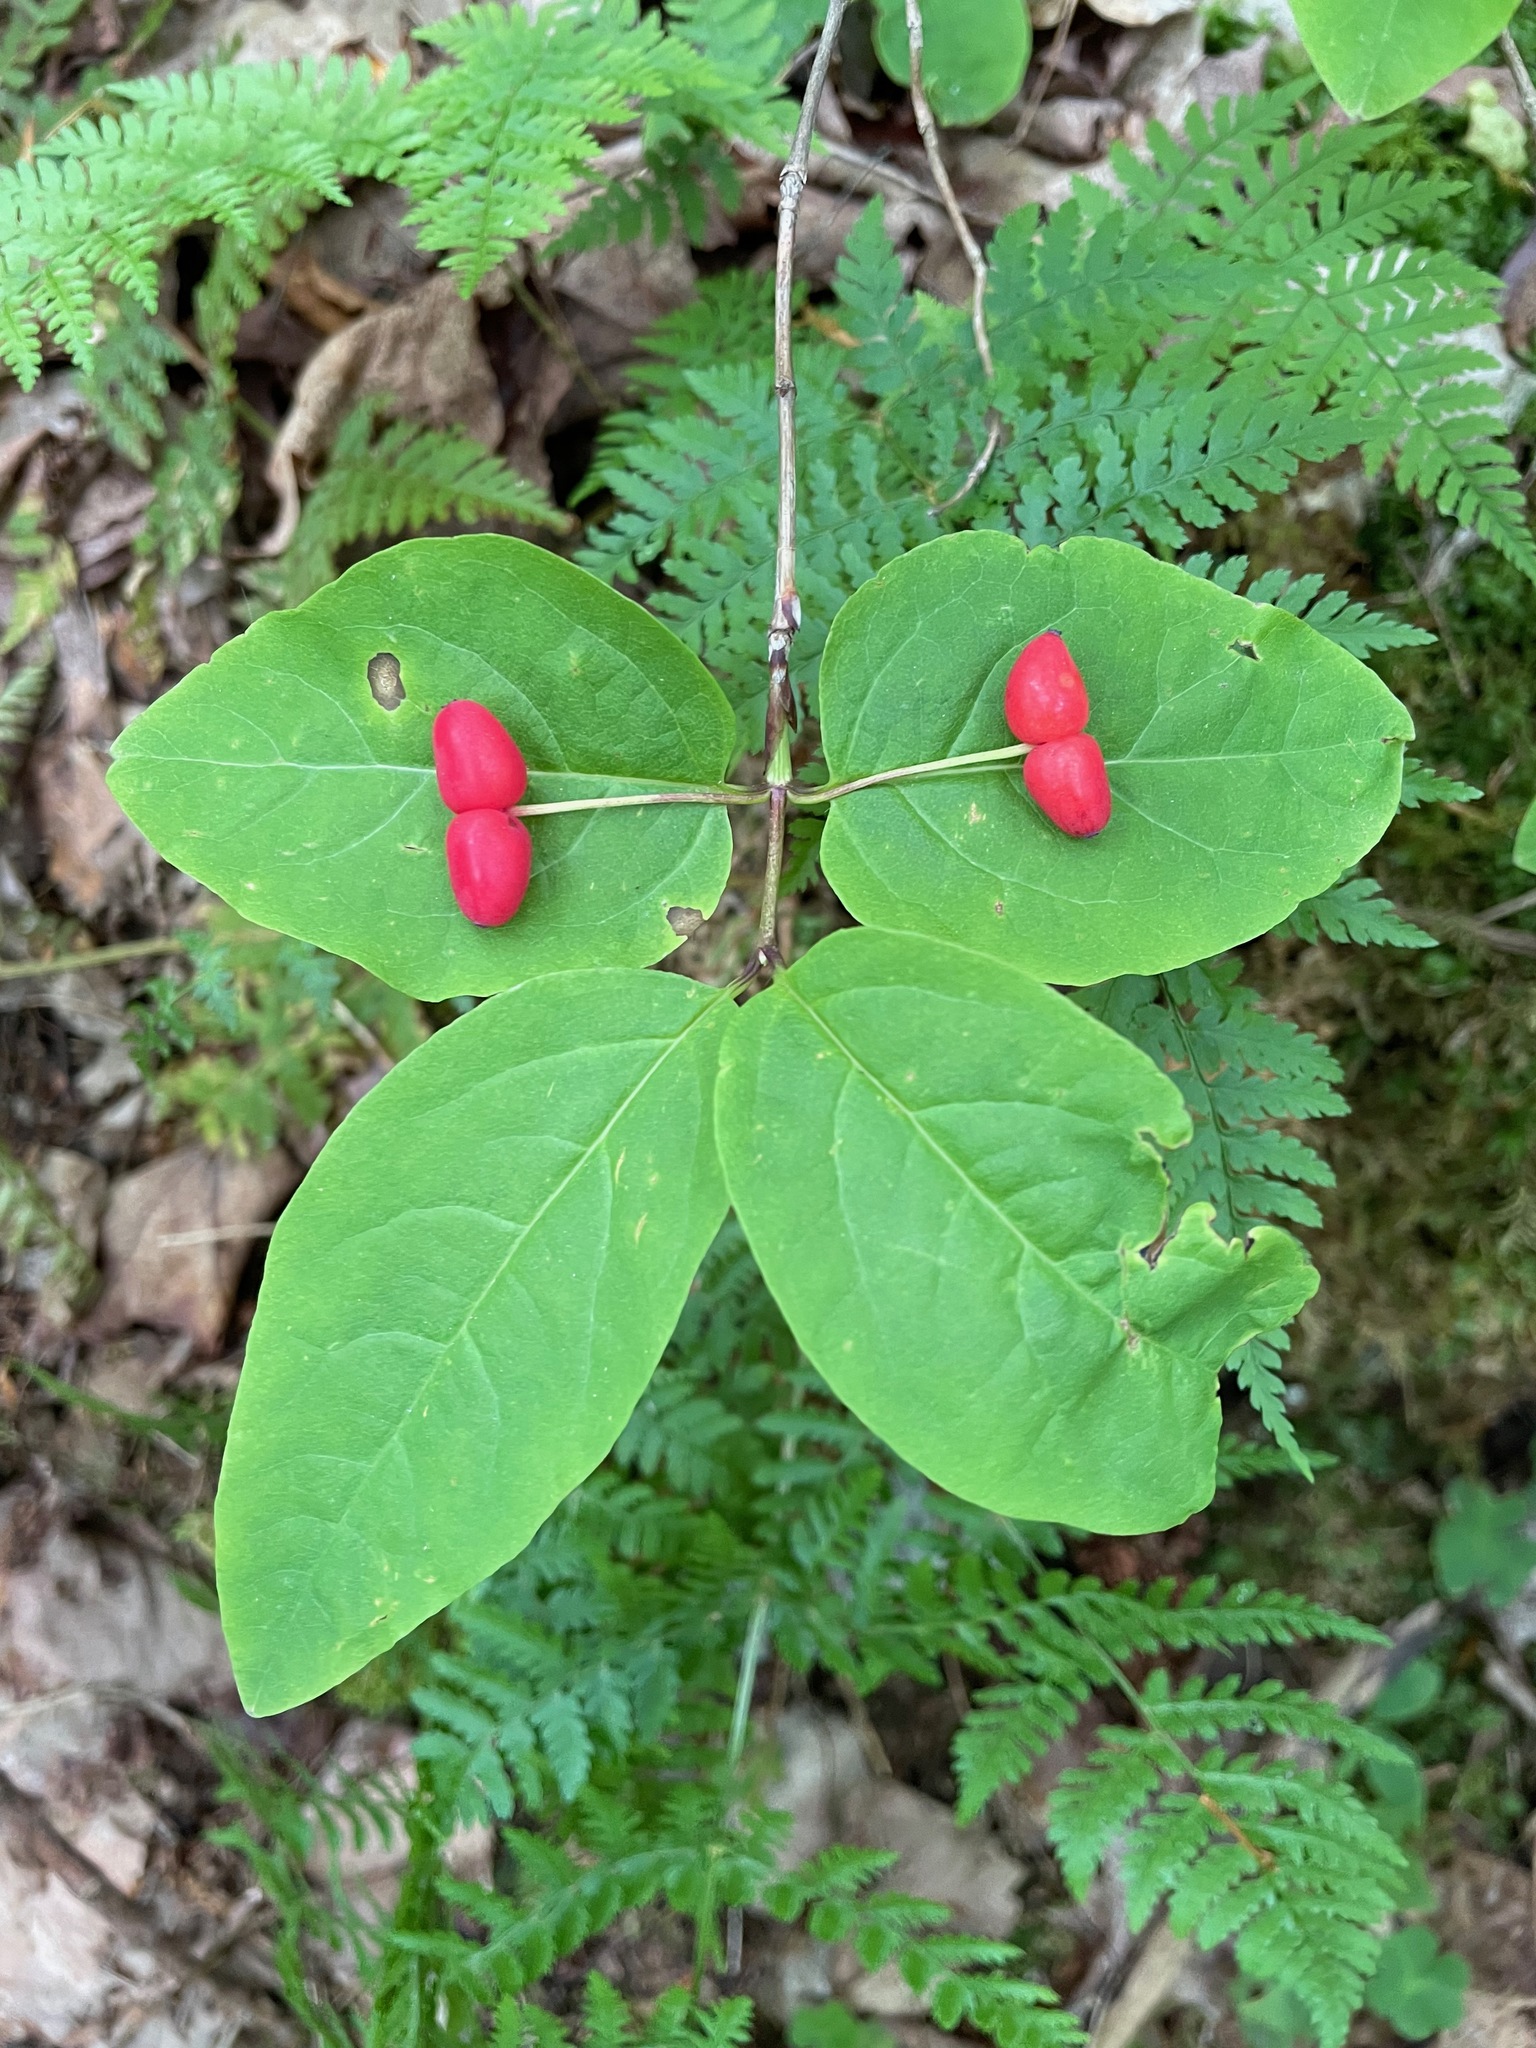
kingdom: Plantae
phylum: Tracheophyta
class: Magnoliopsida
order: Dipsacales
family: Caprifoliaceae
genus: Lonicera
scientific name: Lonicera canadensis
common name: American fly-honeysuckle
